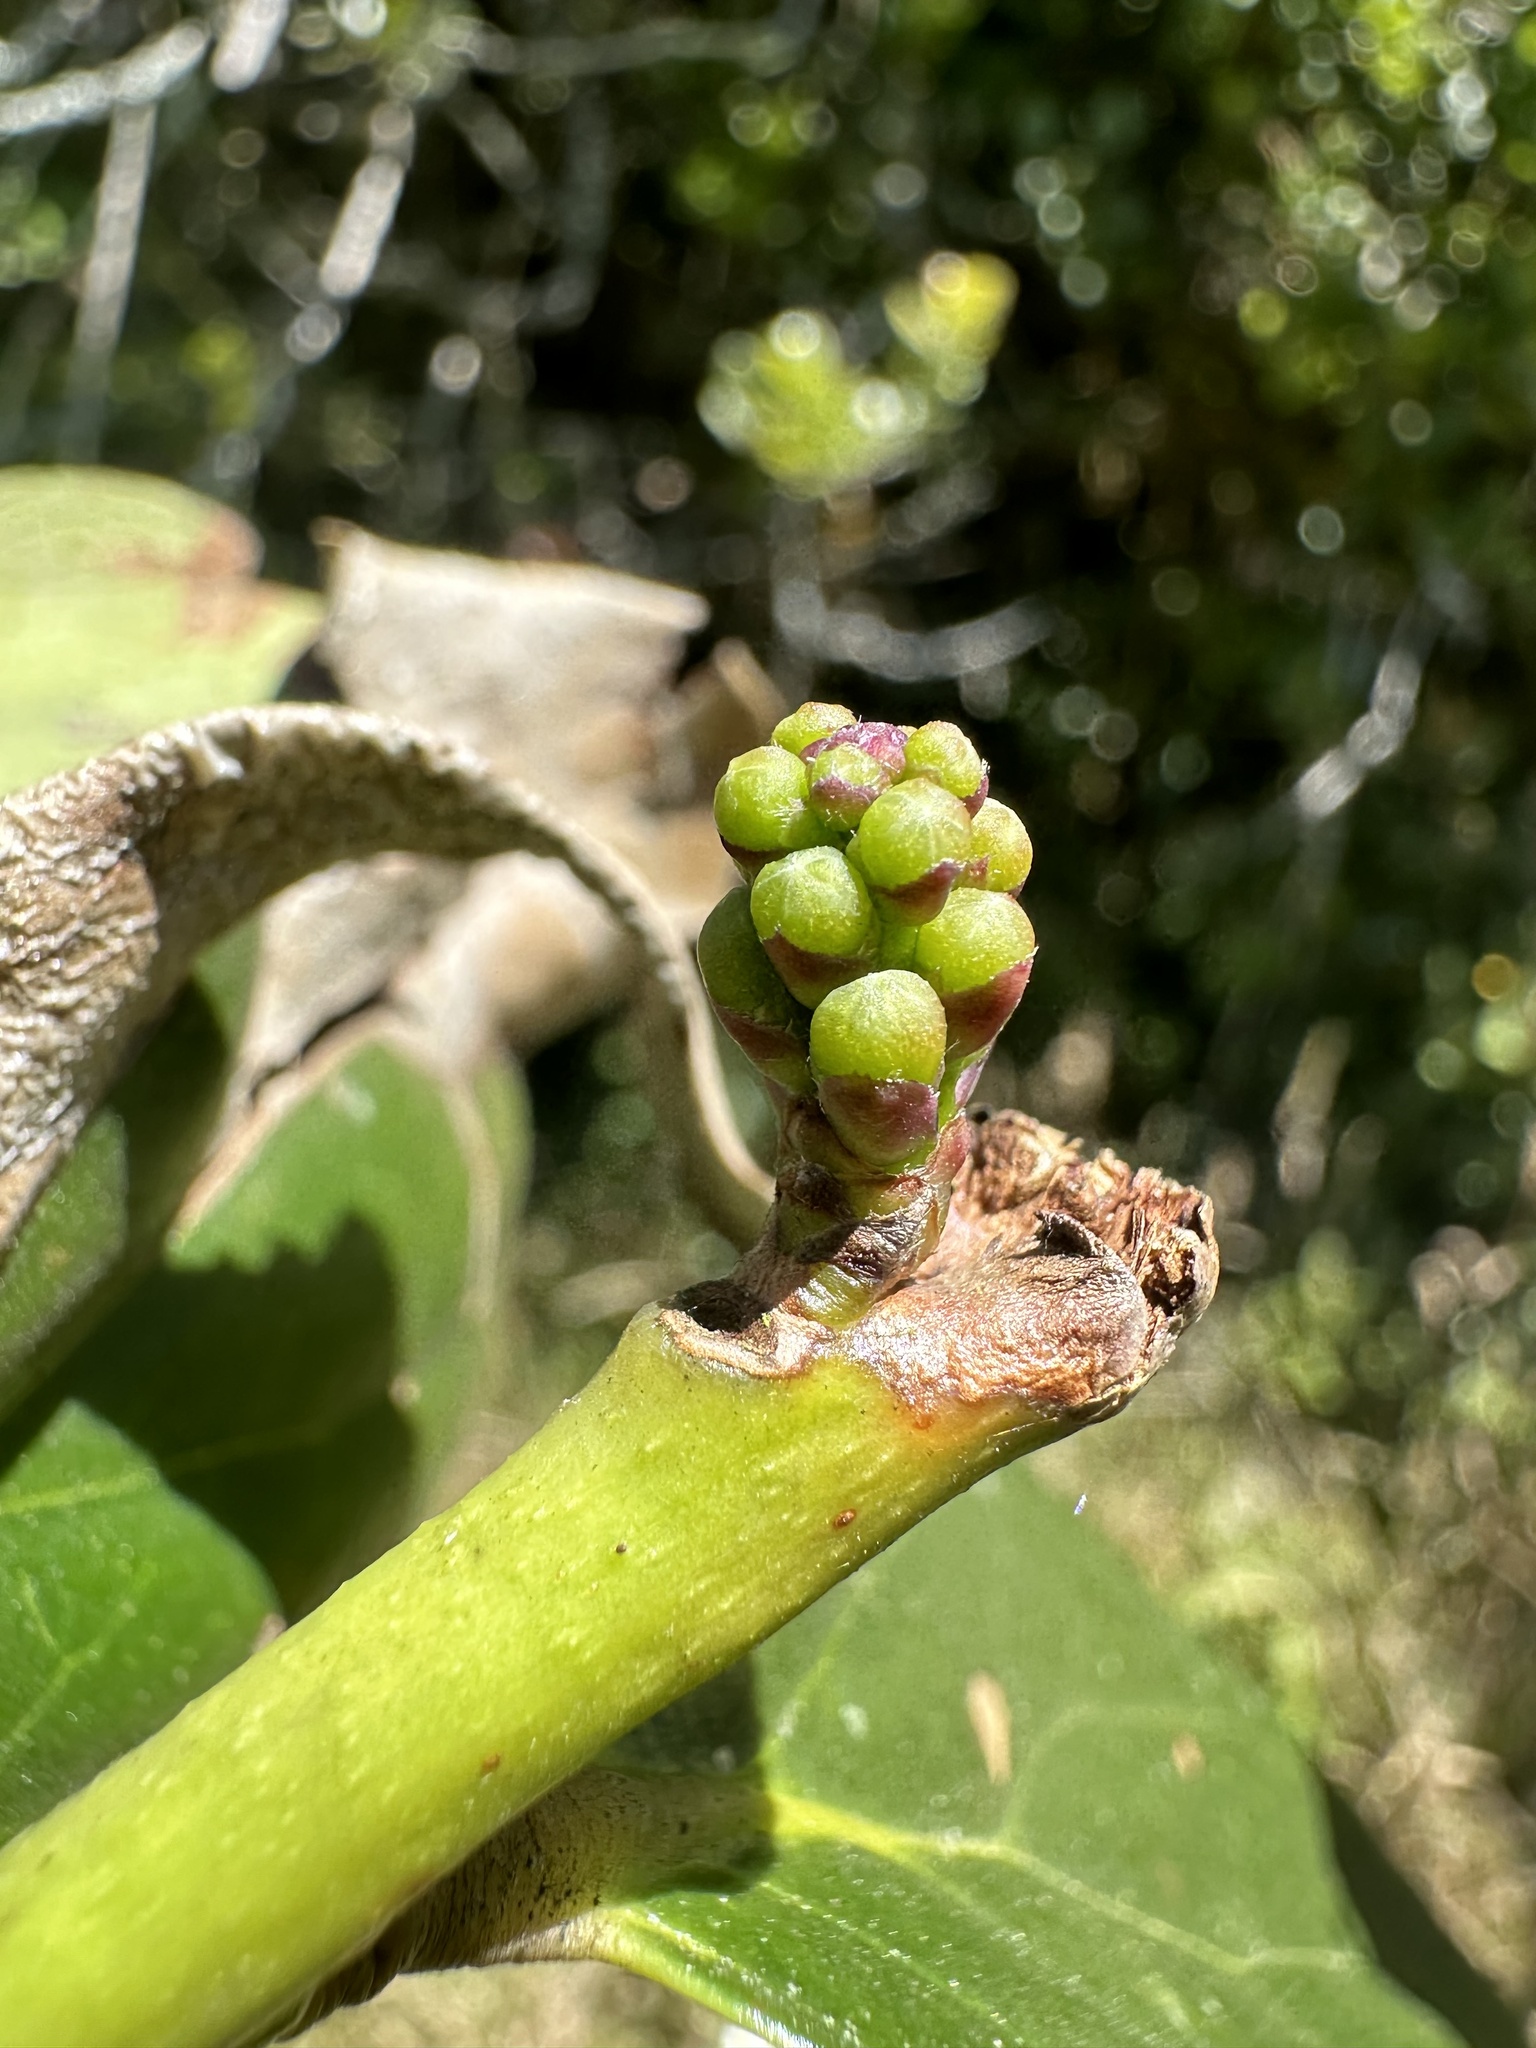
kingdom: Plantae
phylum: Tracheophyta
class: Magnoliopsida
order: Ericales
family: Ericaceae
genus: Macleania
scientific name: Macleania rupestris
